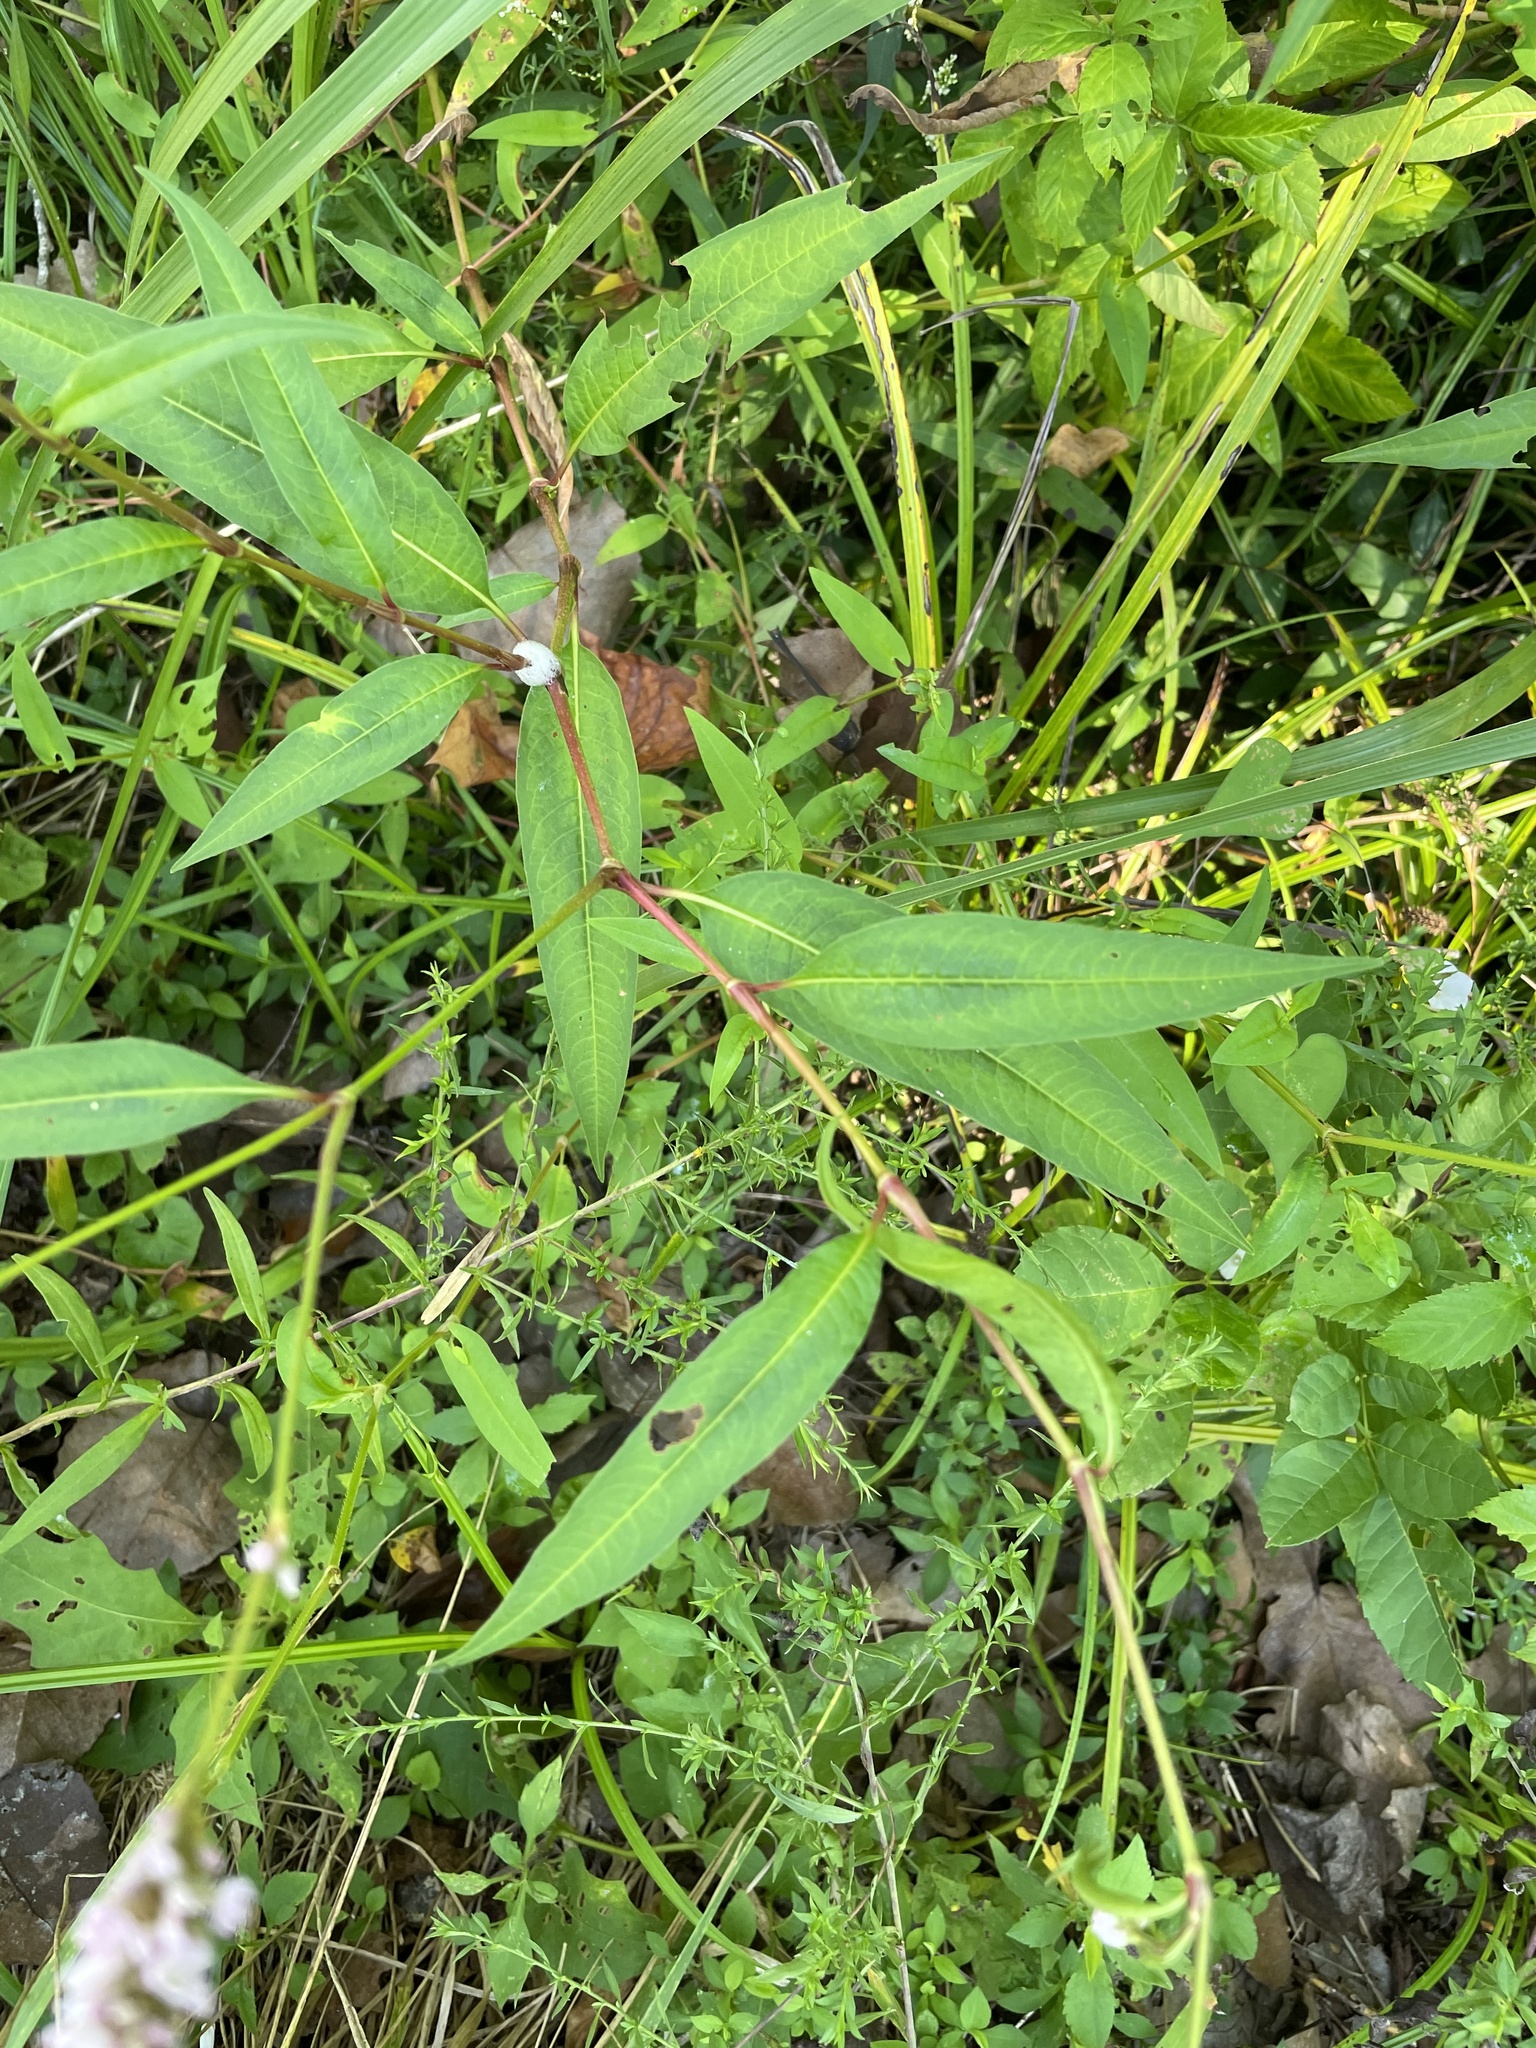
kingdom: Plantae
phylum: Tracheophyta
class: Magnoliopsida
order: Caryophyllales
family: Polygonaceae
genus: Persicaria
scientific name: Persicaria pensylvanica
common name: Pinkweed
